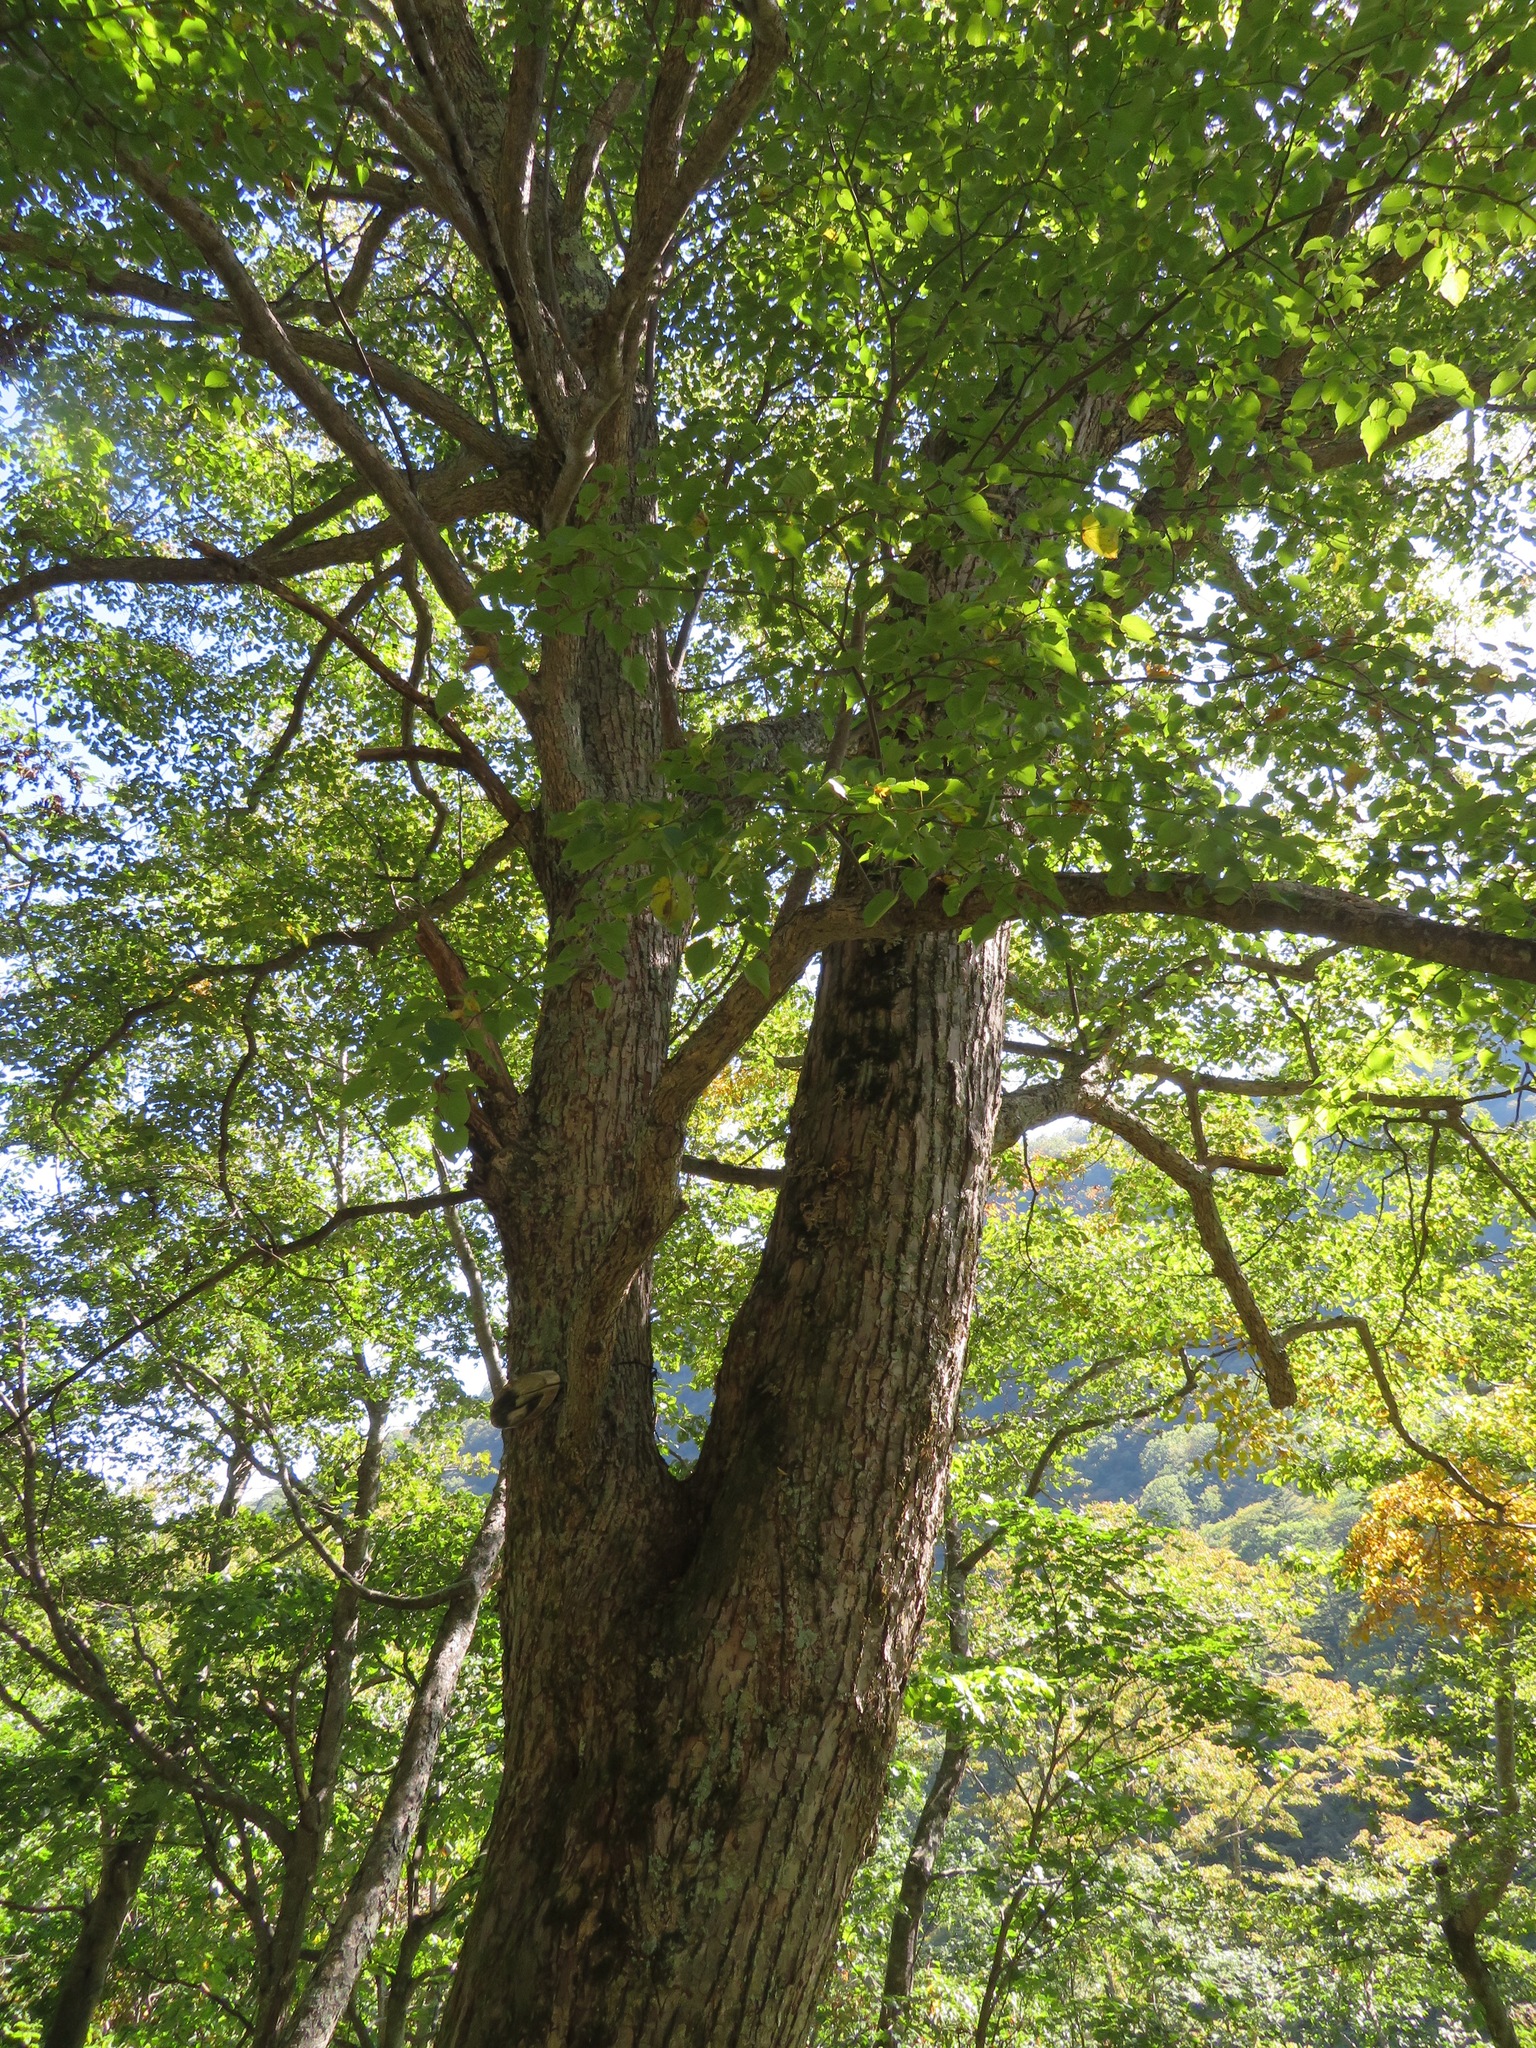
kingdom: Plantae
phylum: Tracheophyta
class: Magnoliopsida
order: Malvales
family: Malvaceae
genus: Tilia
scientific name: Tilia japonica
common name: Japanese lime
